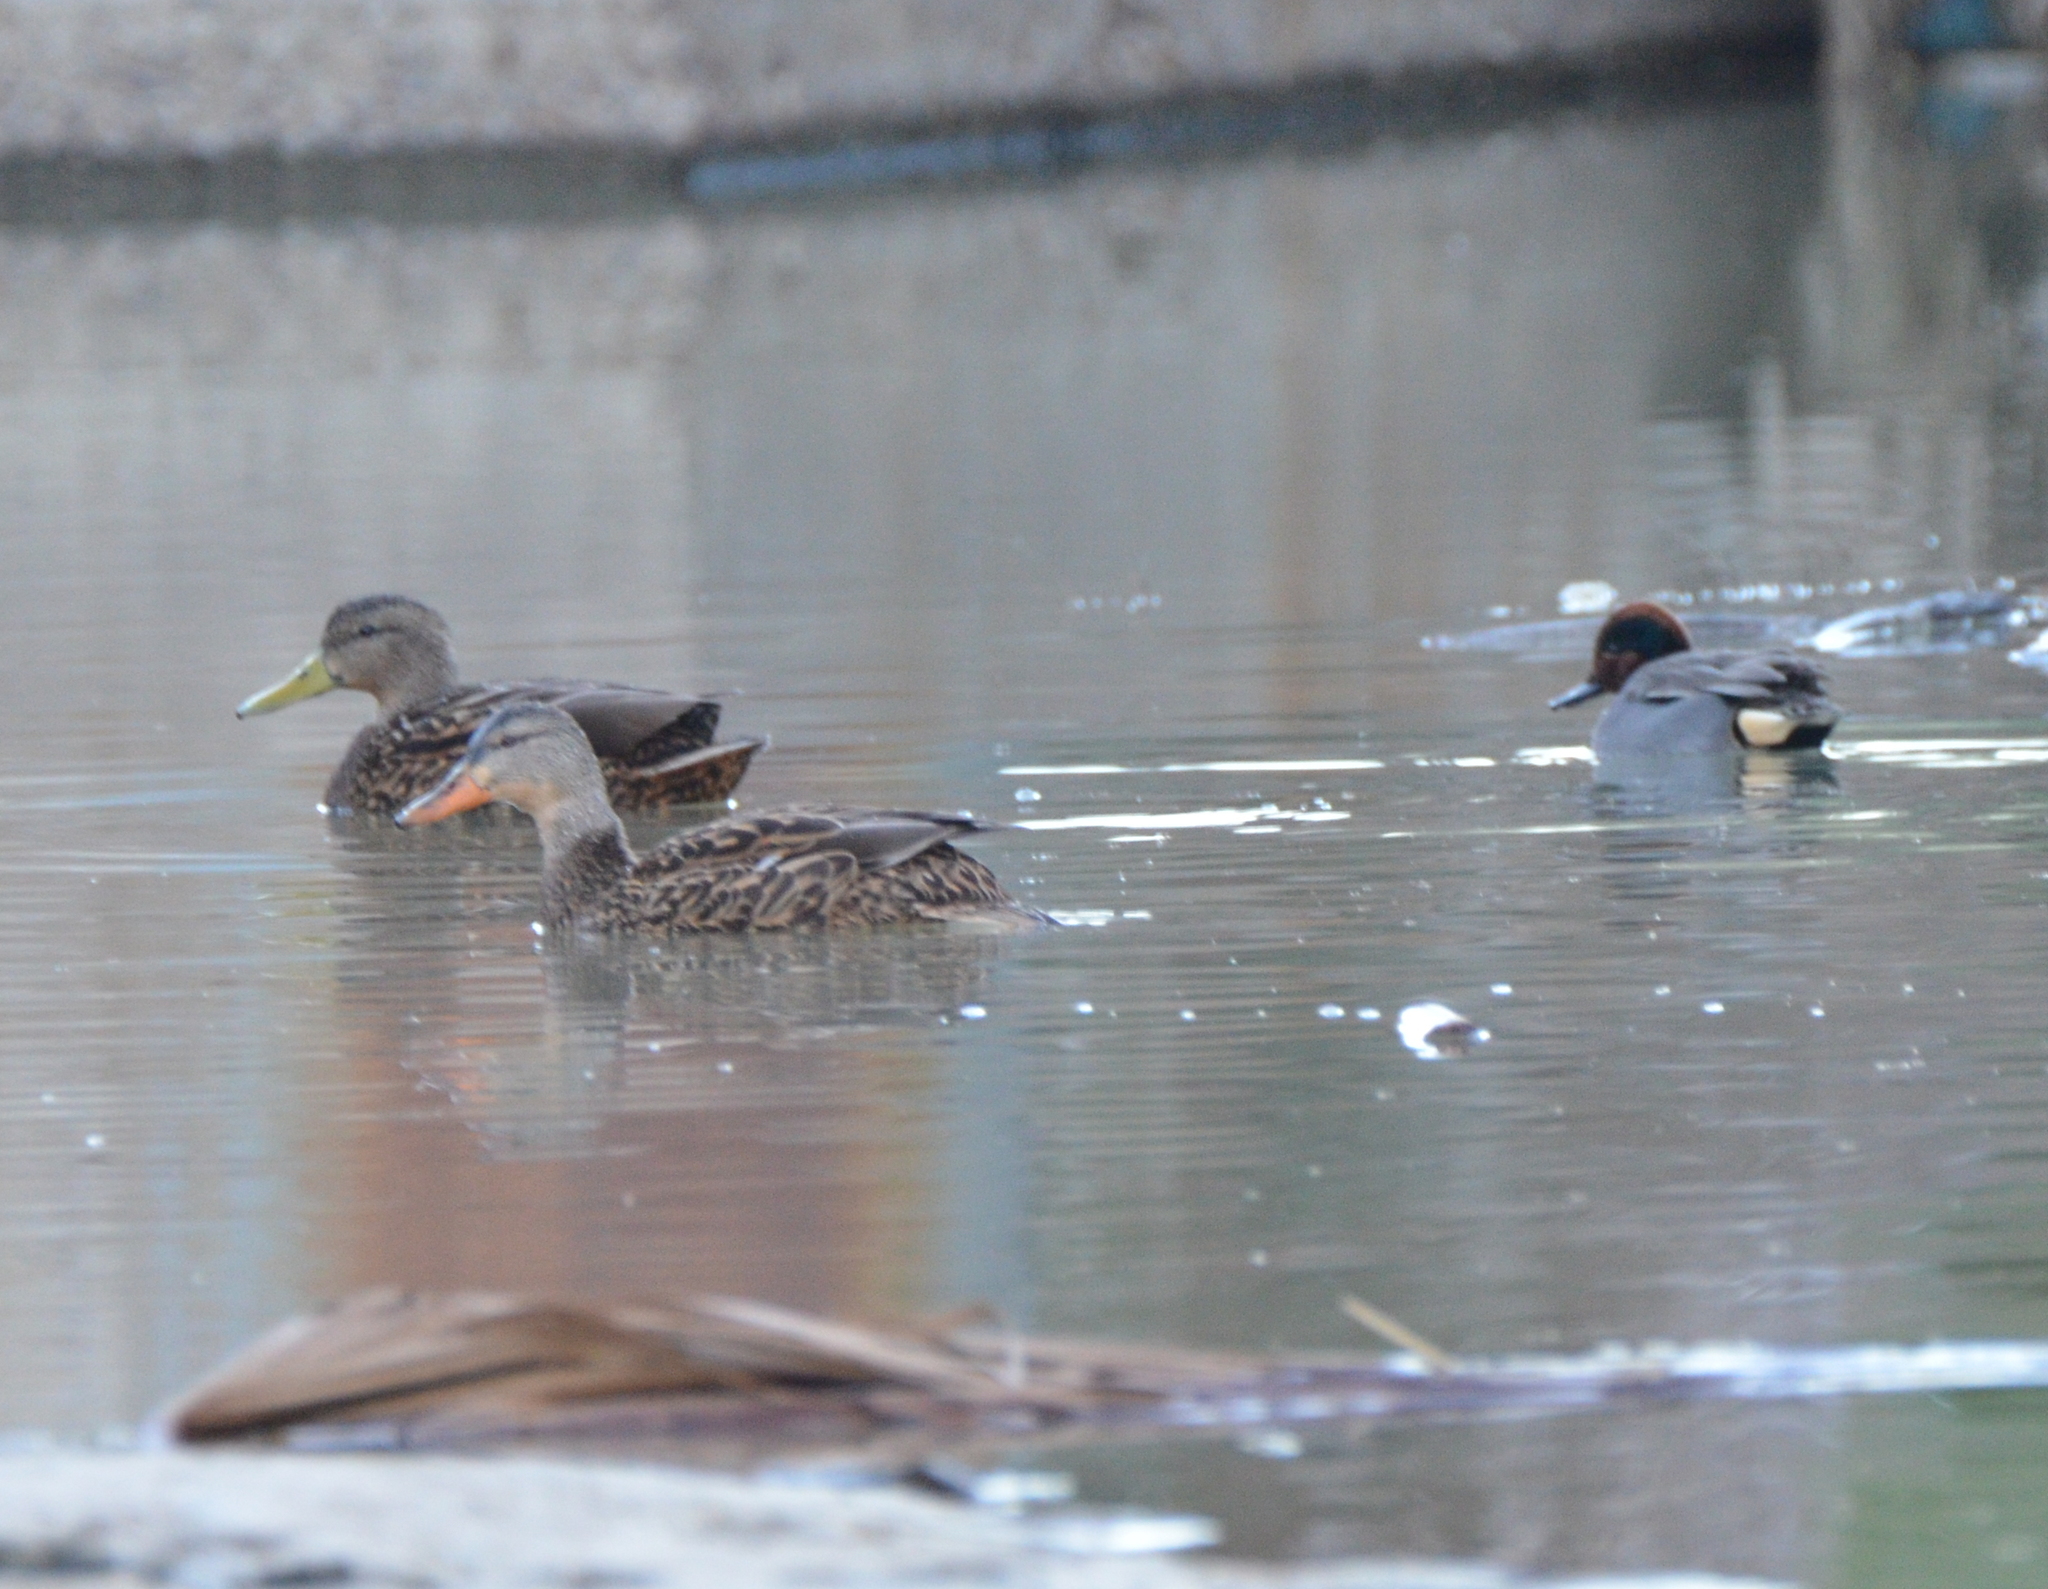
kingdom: Animalia
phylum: Chordata
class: Aves
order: Anseriformes
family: Anatidae
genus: Anas
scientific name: Anas diazi
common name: Mexican duck
